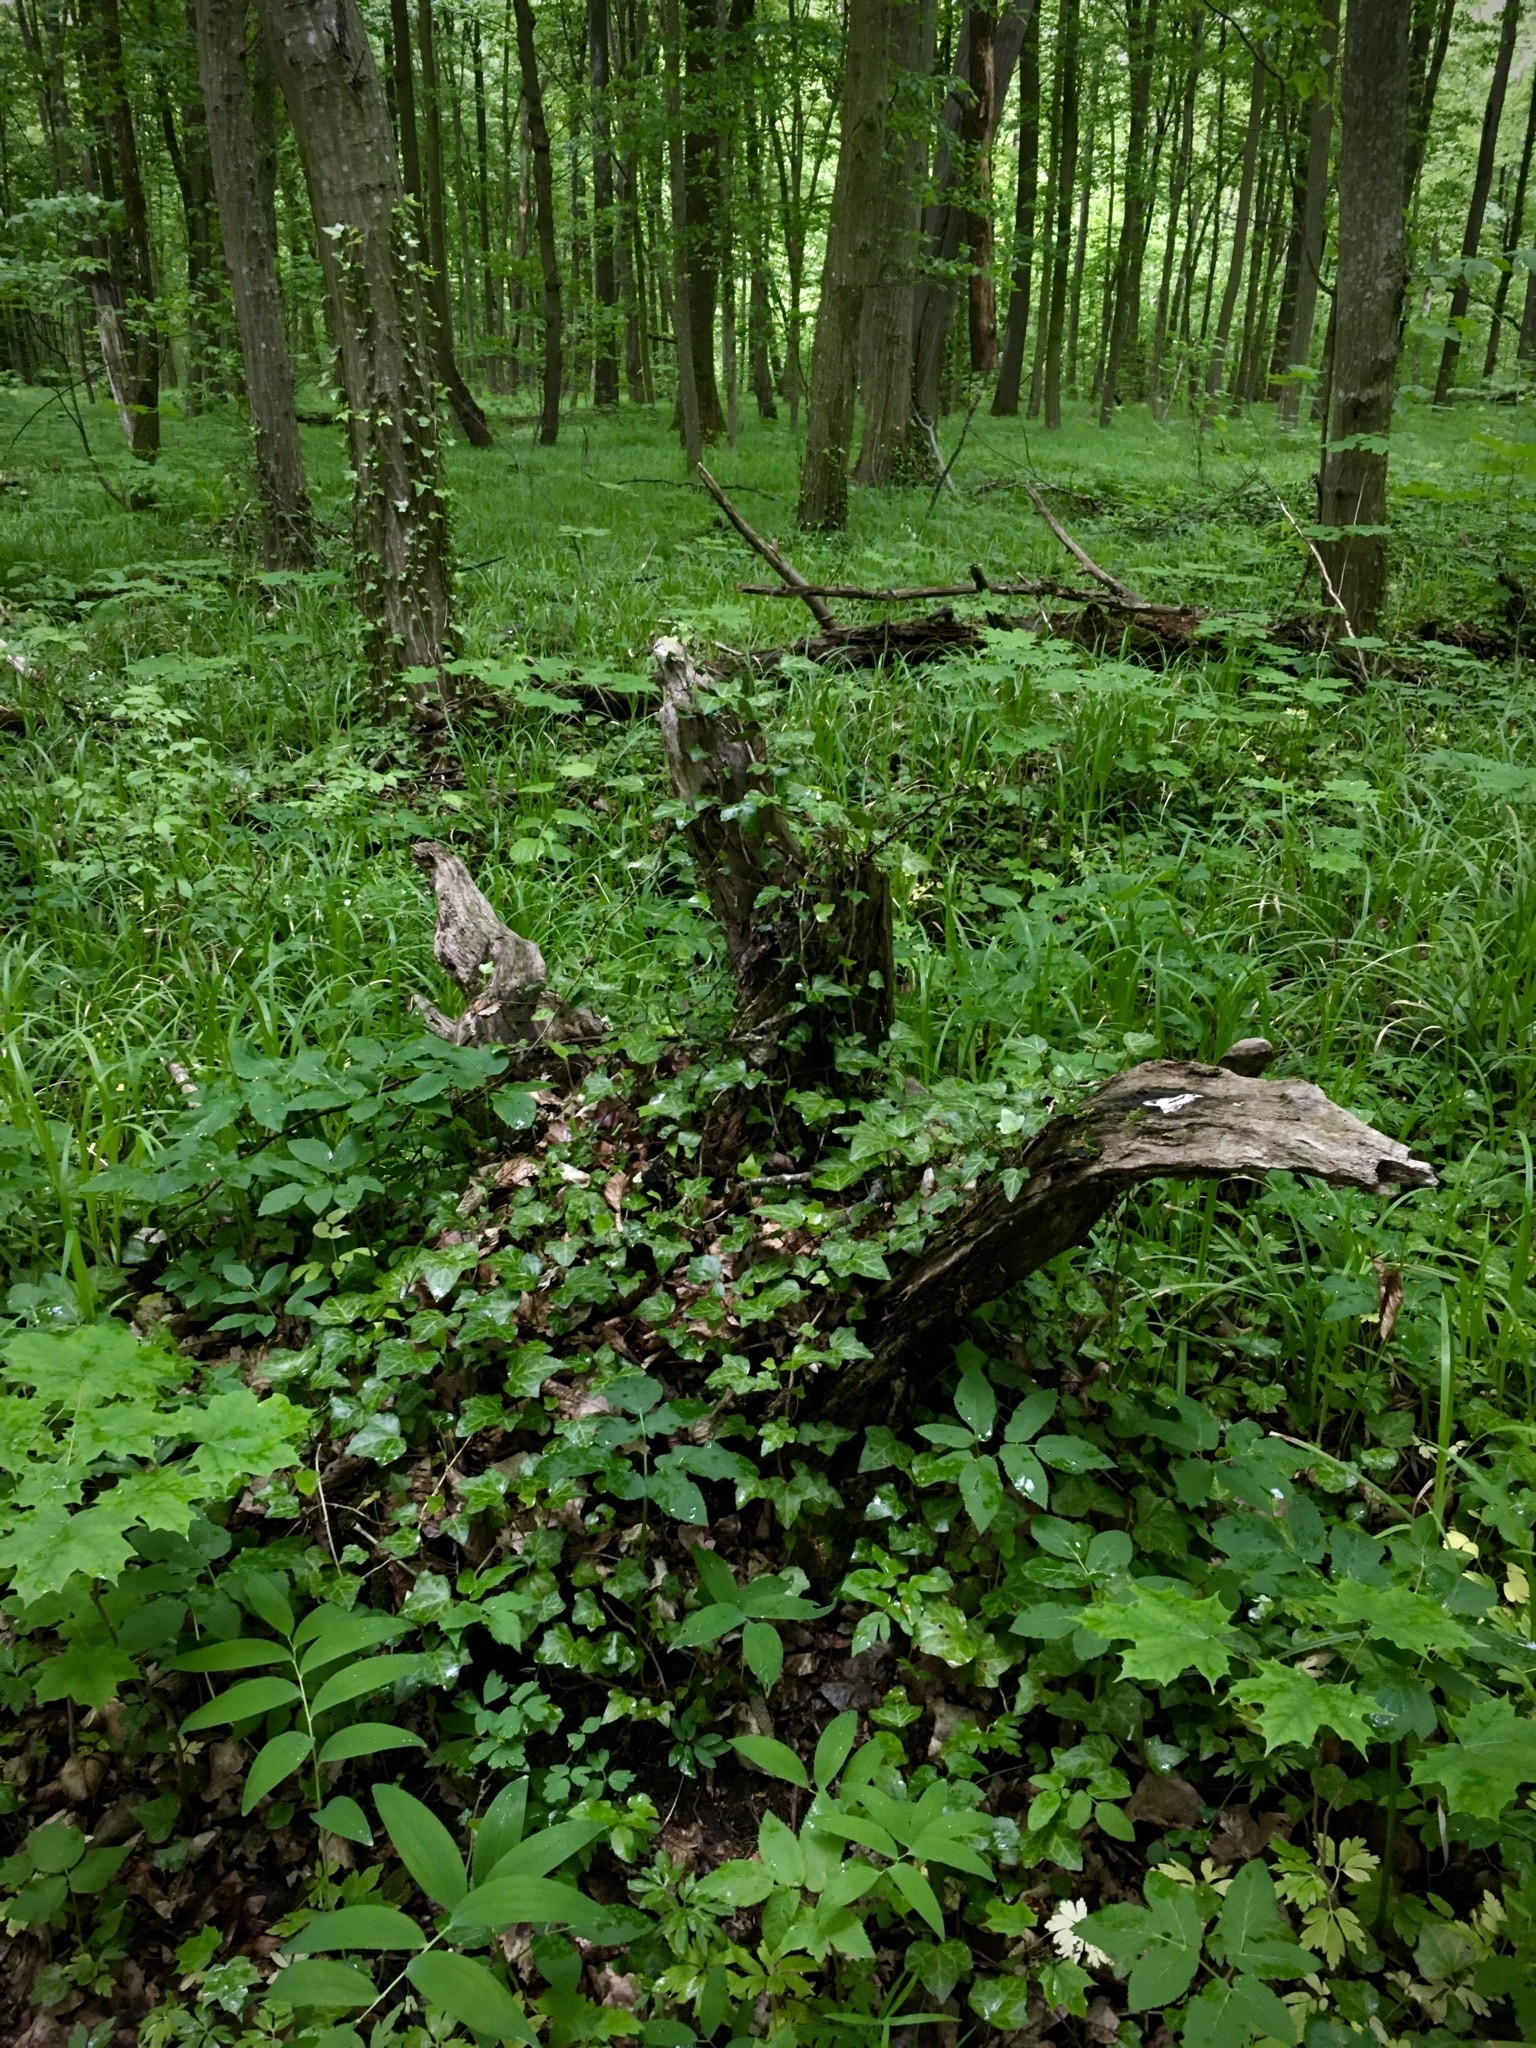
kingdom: Plantae
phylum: Tracheophyta
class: Magnoliopsida
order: Apiales
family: Araliaceae
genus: Hedera
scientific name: Hedera helix
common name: Ivy
